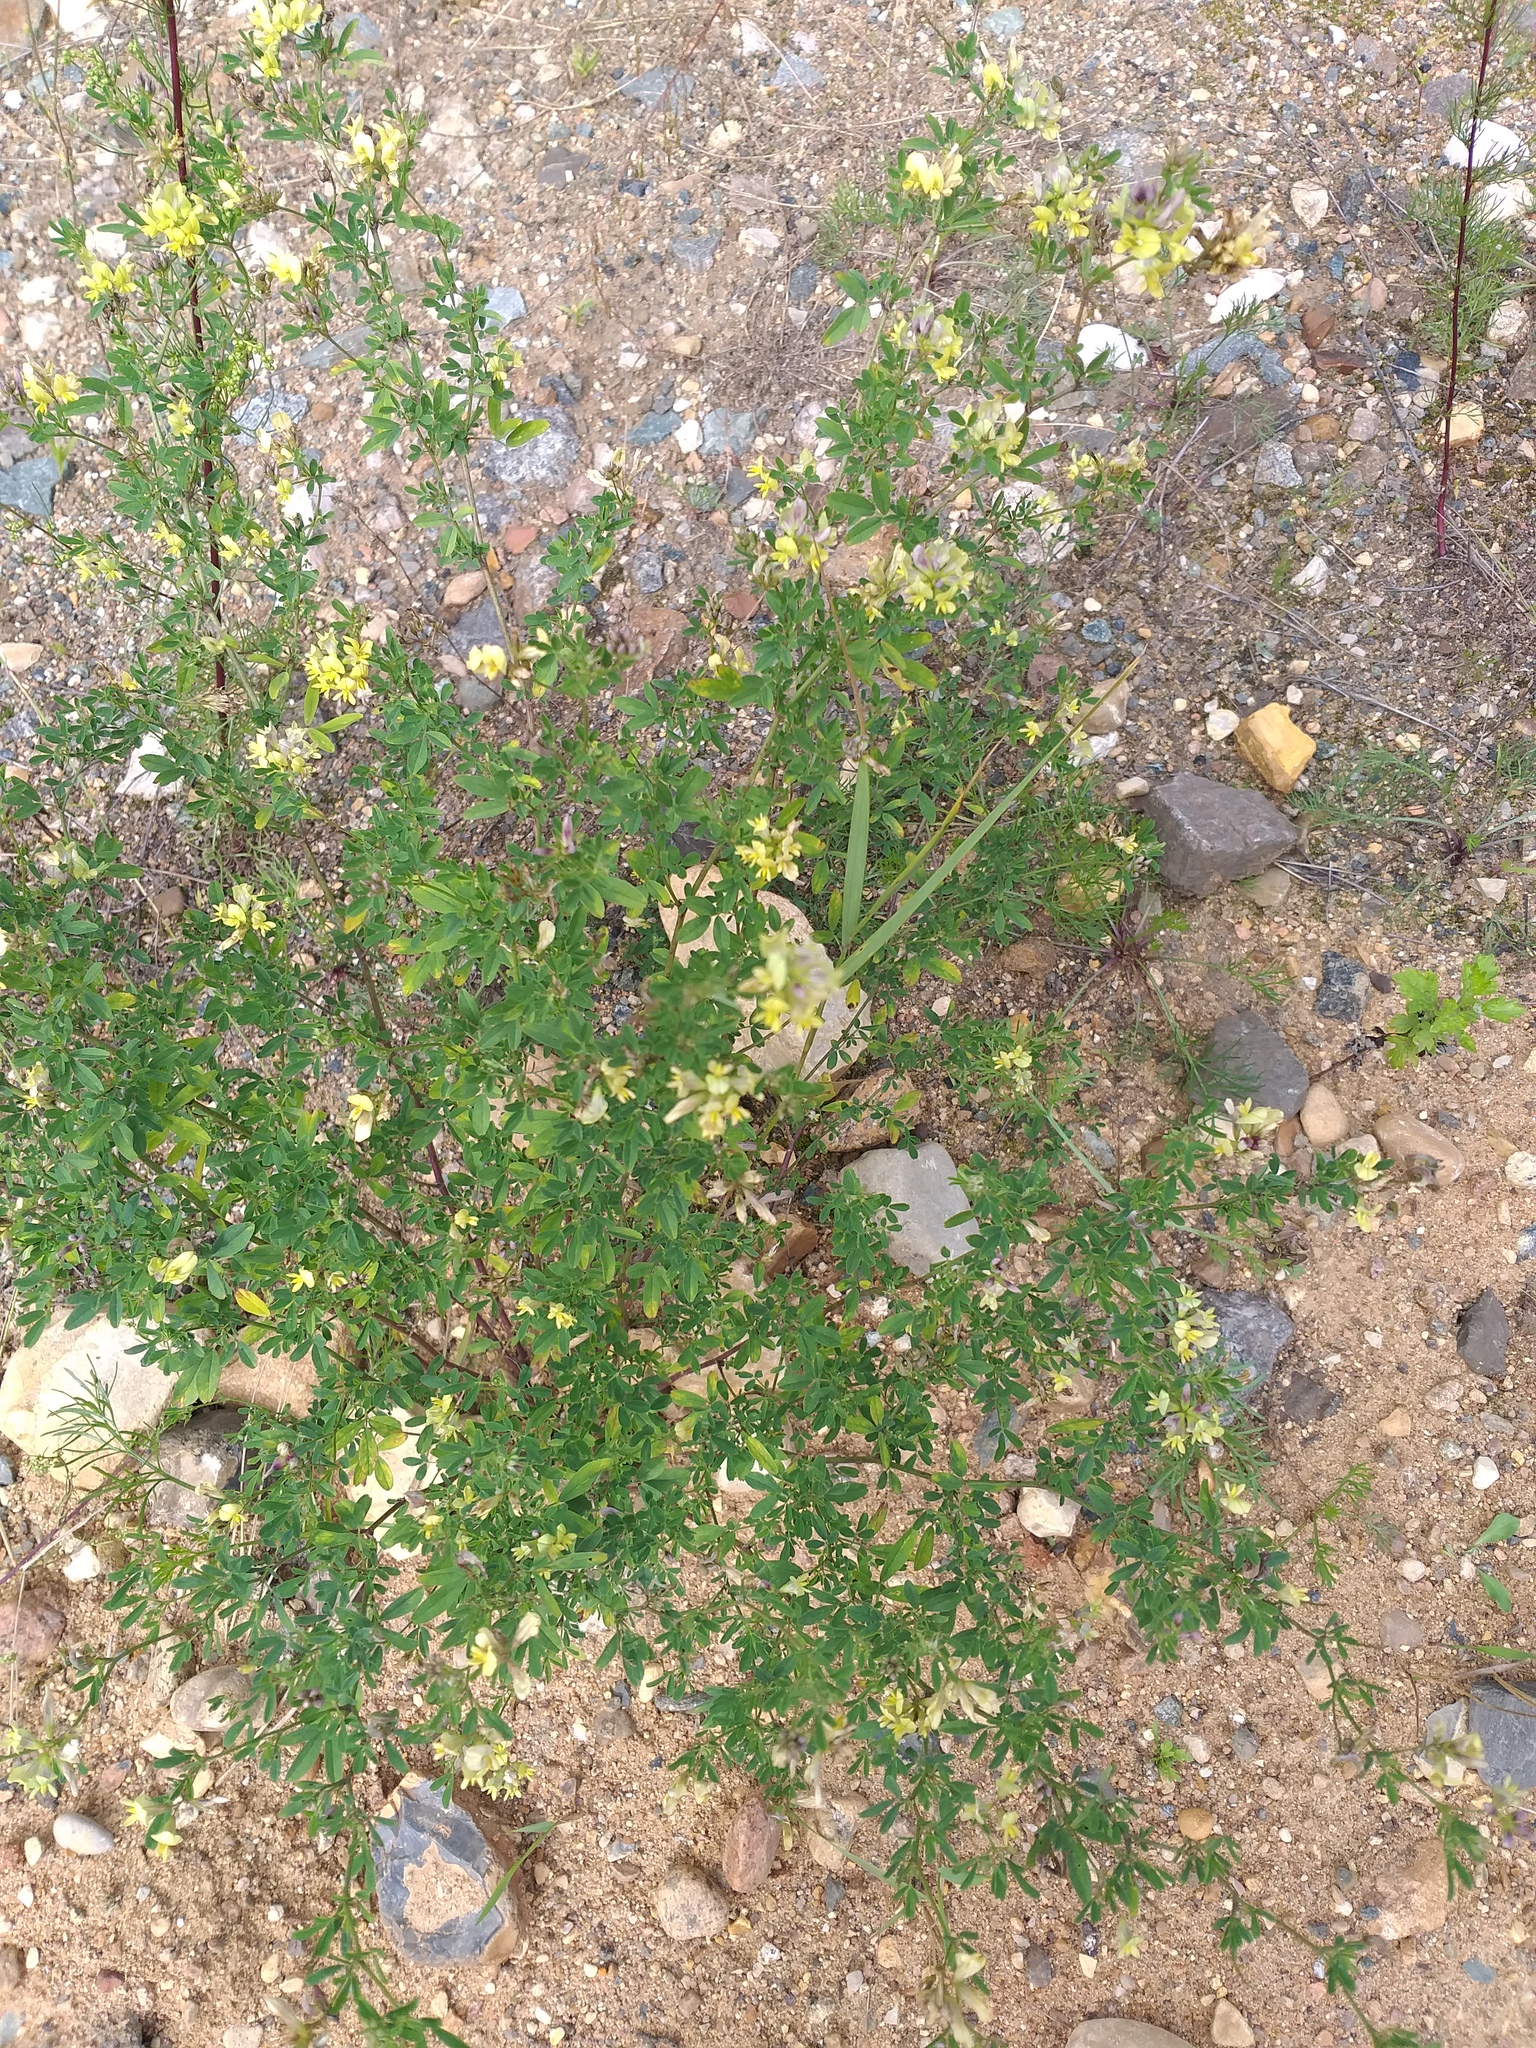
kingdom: Plantae
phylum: Tracheophyta
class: Magnoliopsida
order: Fabales
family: Fabaceae
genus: Medicago
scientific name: Medicago varia
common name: Sand lucerne
